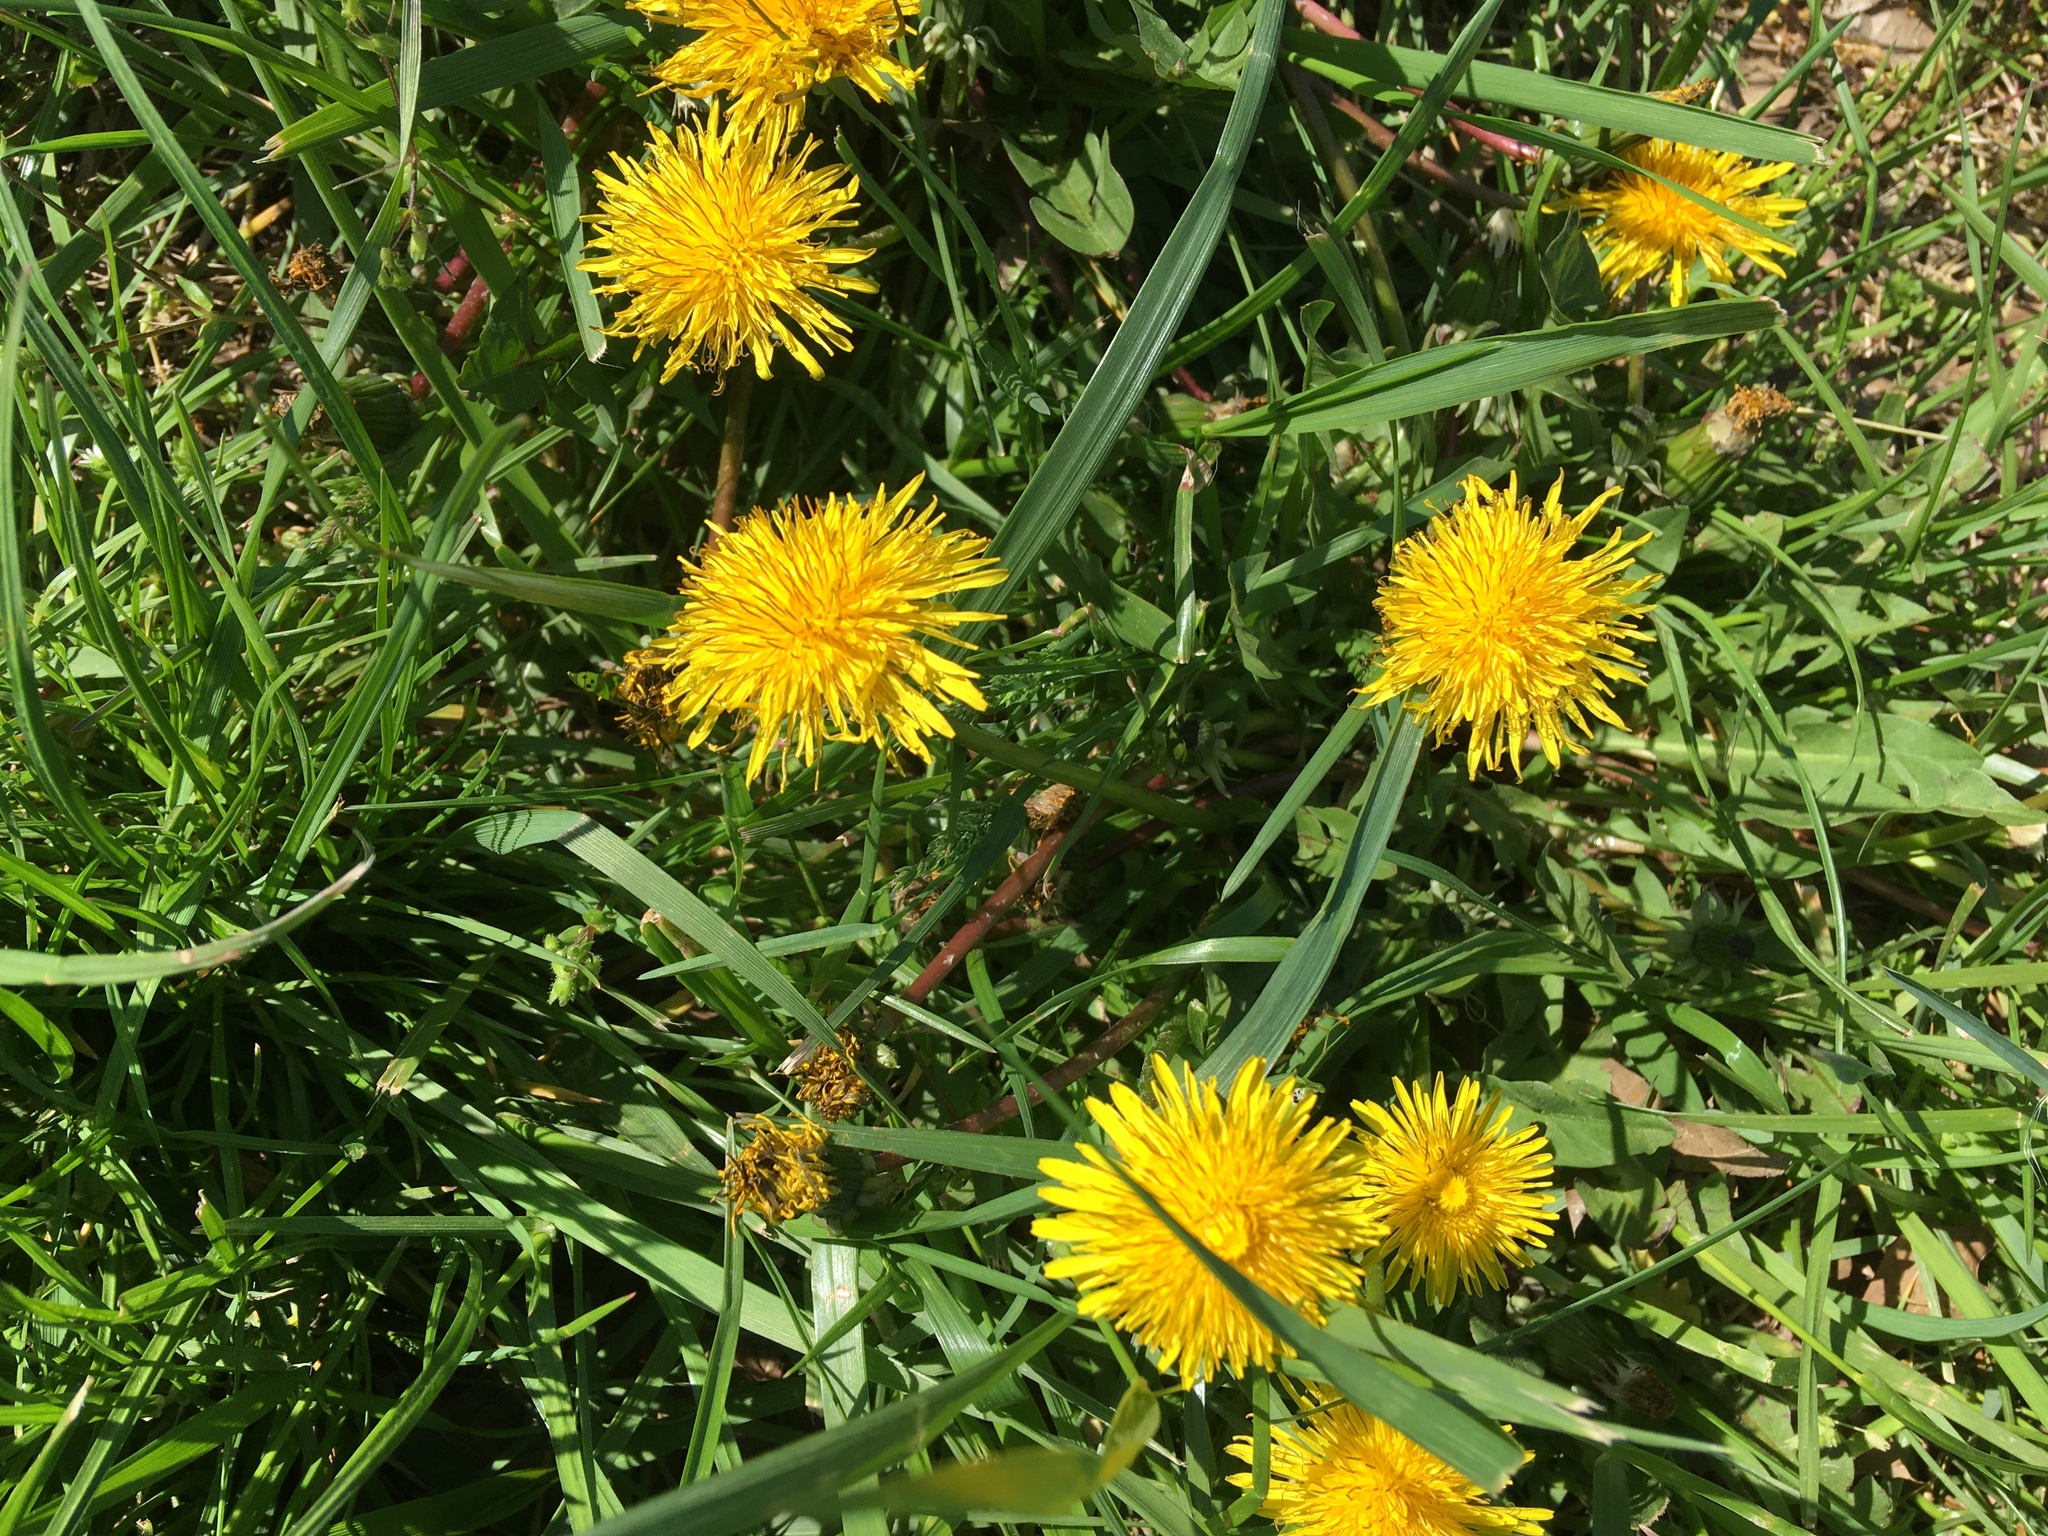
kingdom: Plantae
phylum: Tracheophyta
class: Magnoliopsida
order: Asterales
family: Asteraceae
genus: Taraxacum
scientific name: Taraxacum
